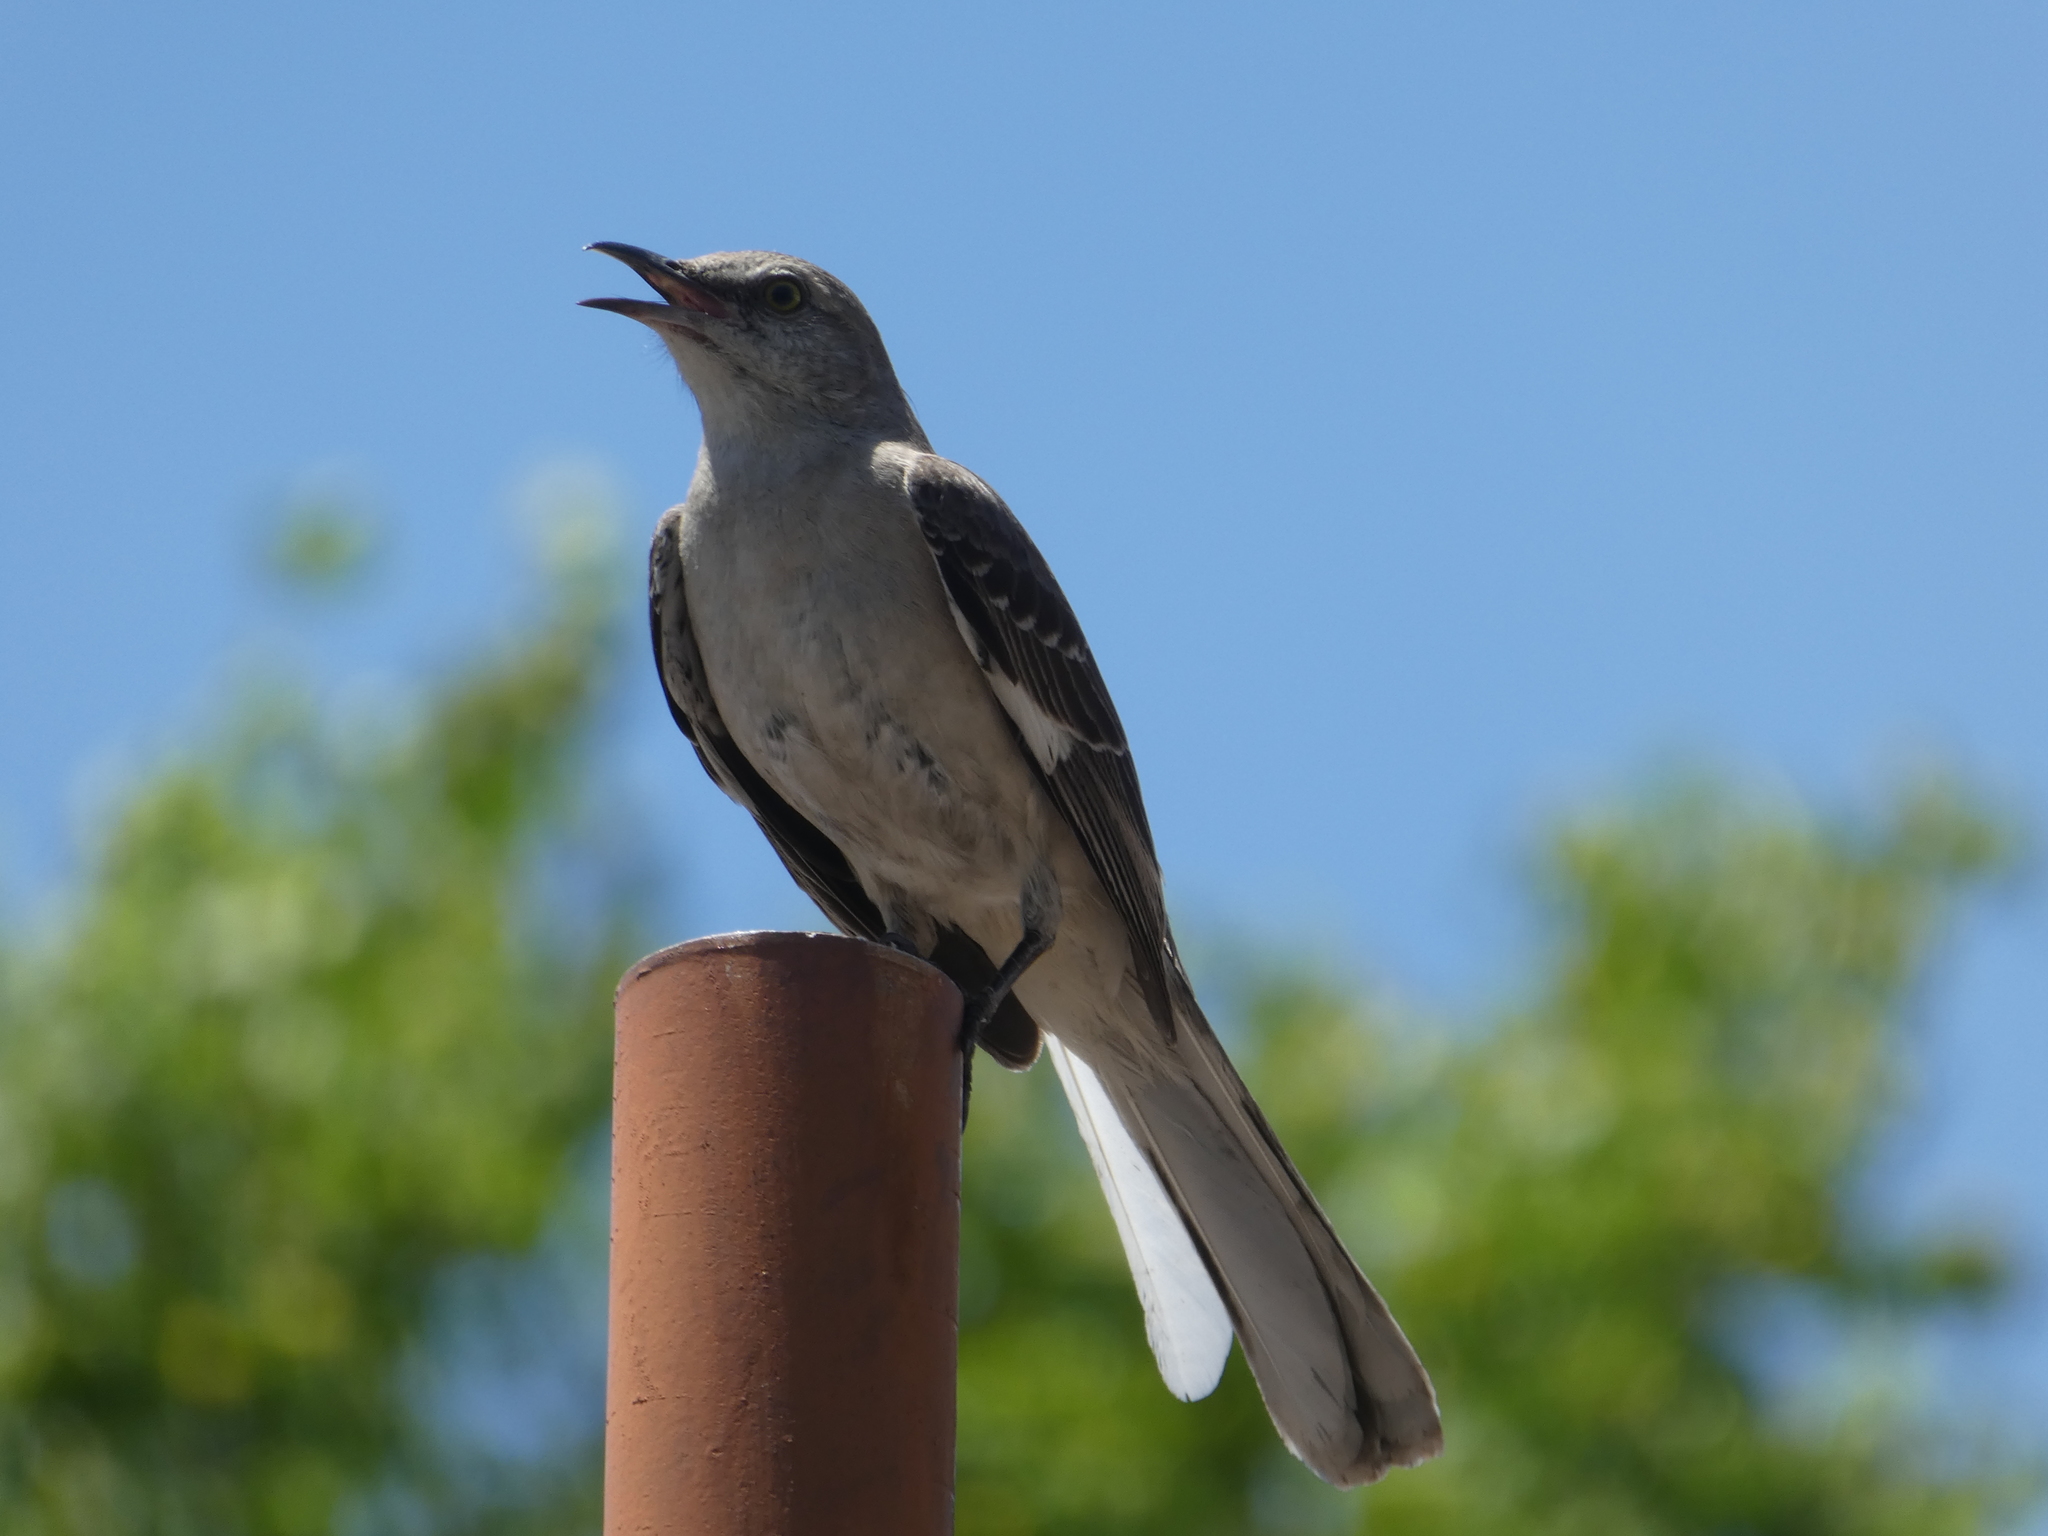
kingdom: Animalia
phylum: Chordata
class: Aves
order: Passeriformes
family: Mimidae
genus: Mimus
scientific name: Mimus polyglottos
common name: Northern mockingbird
